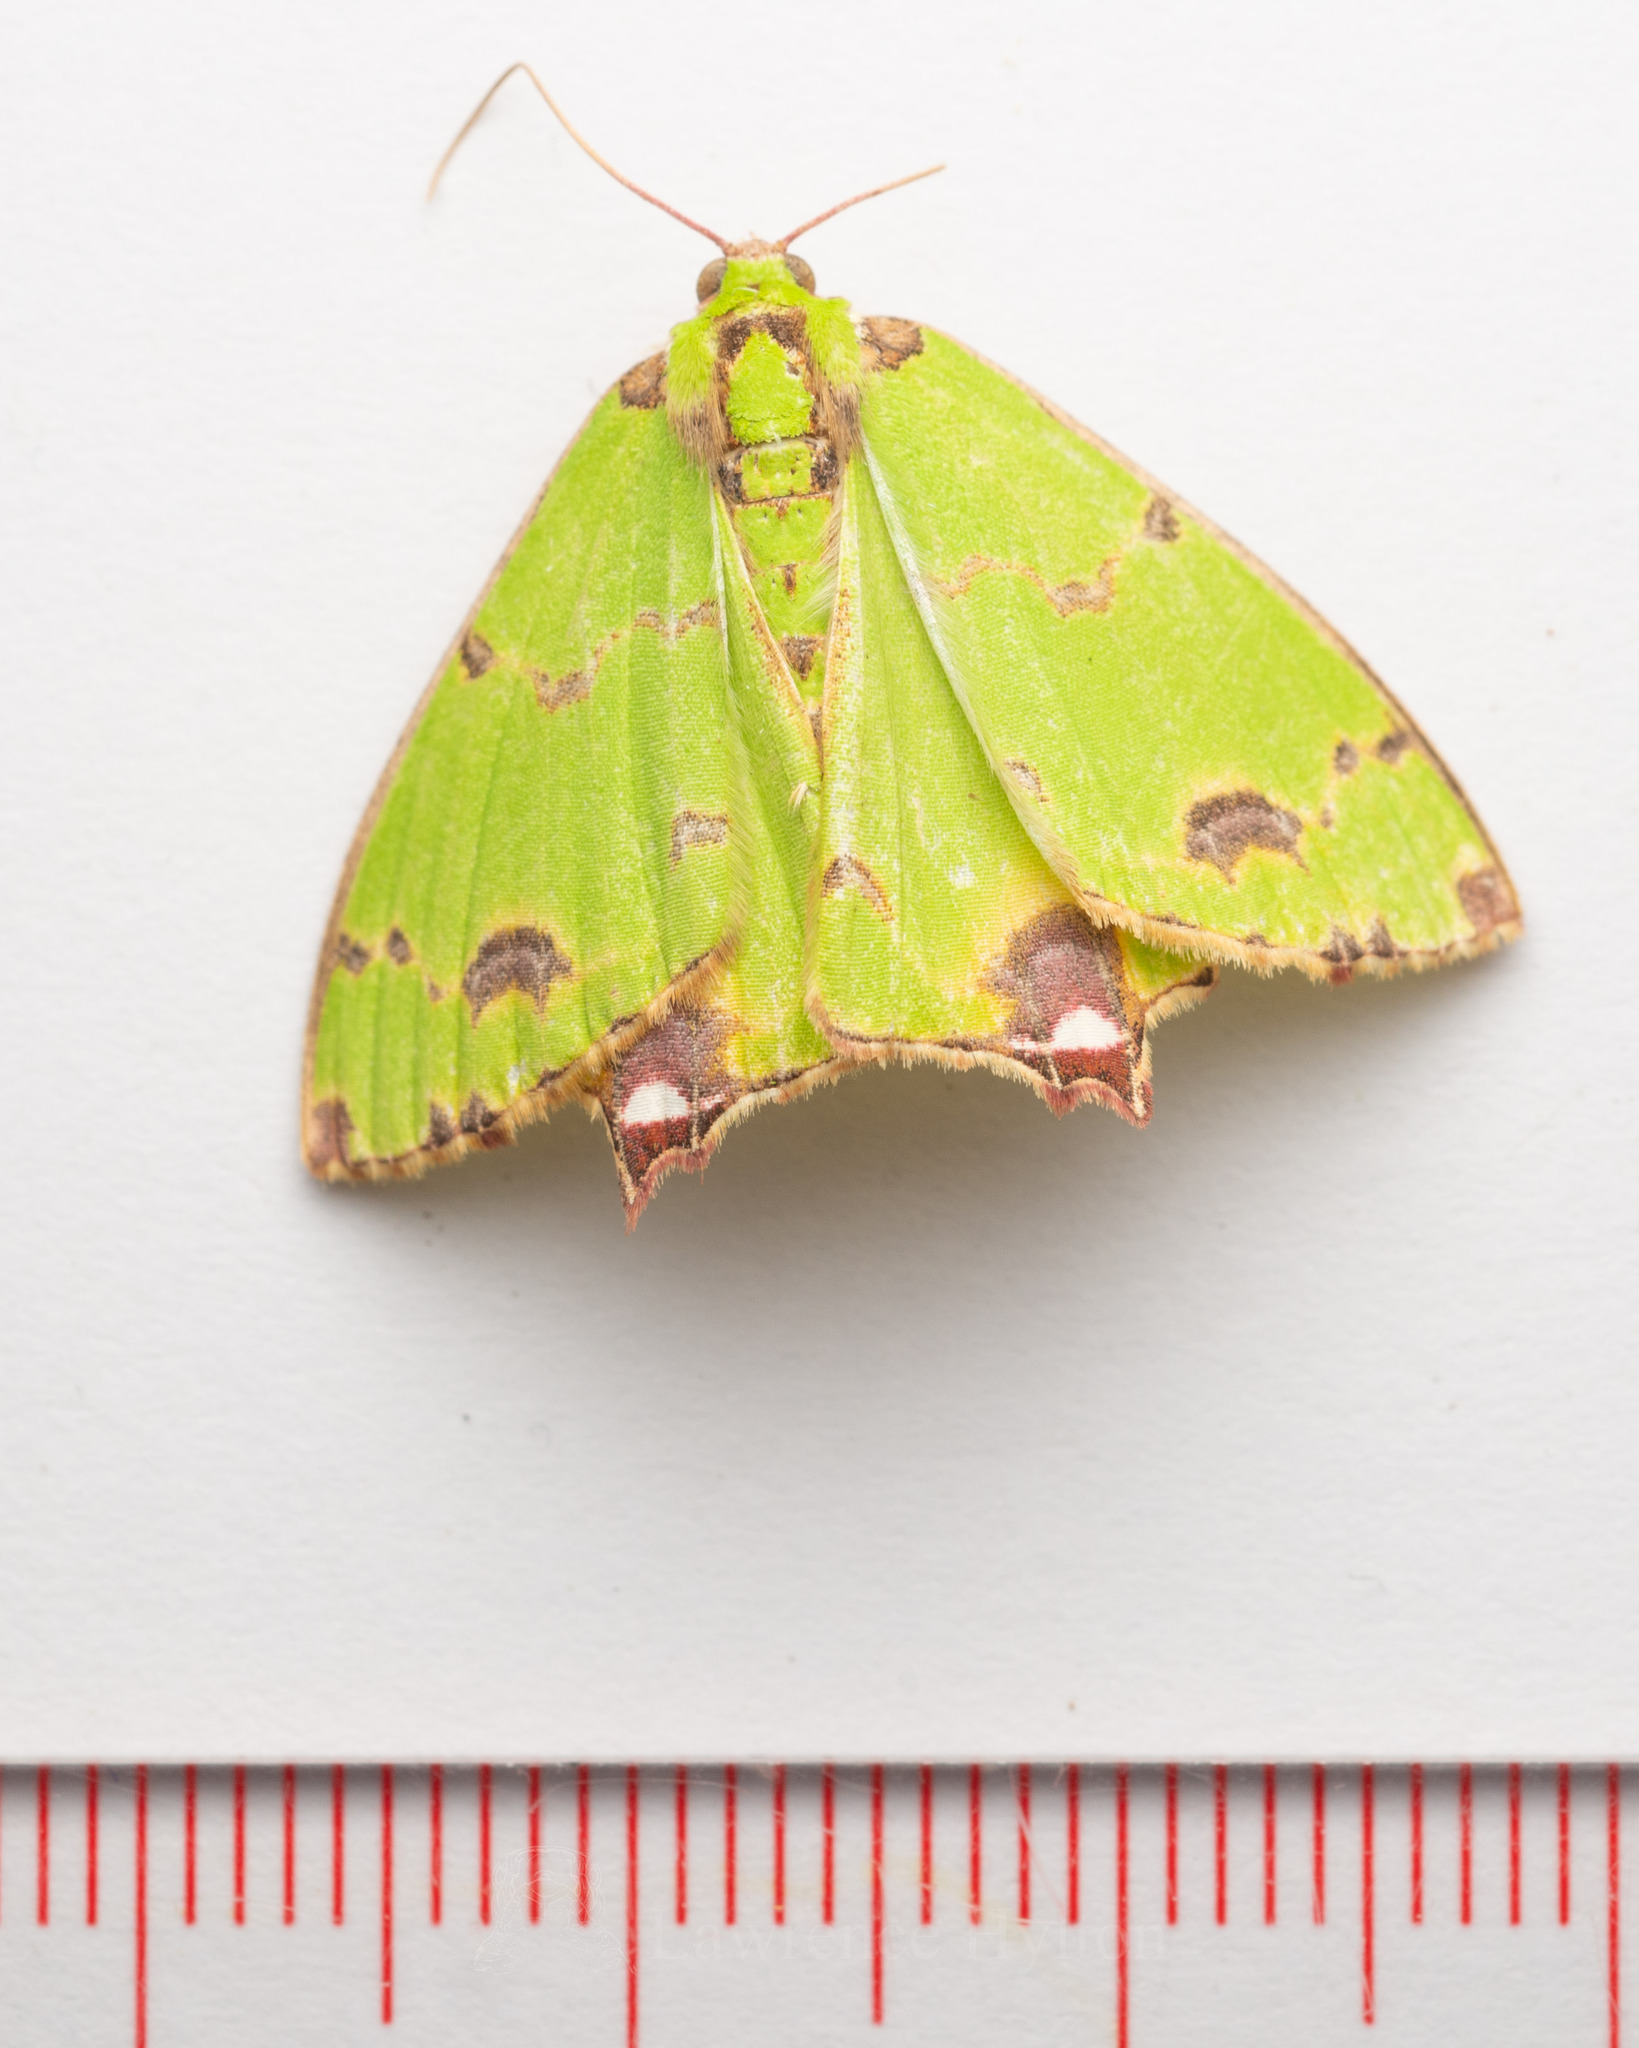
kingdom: Animalia
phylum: Arthropoda
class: Insecta
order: Lepidoptera
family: Geometridae
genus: Agathia
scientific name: Agathia lycaenaria
